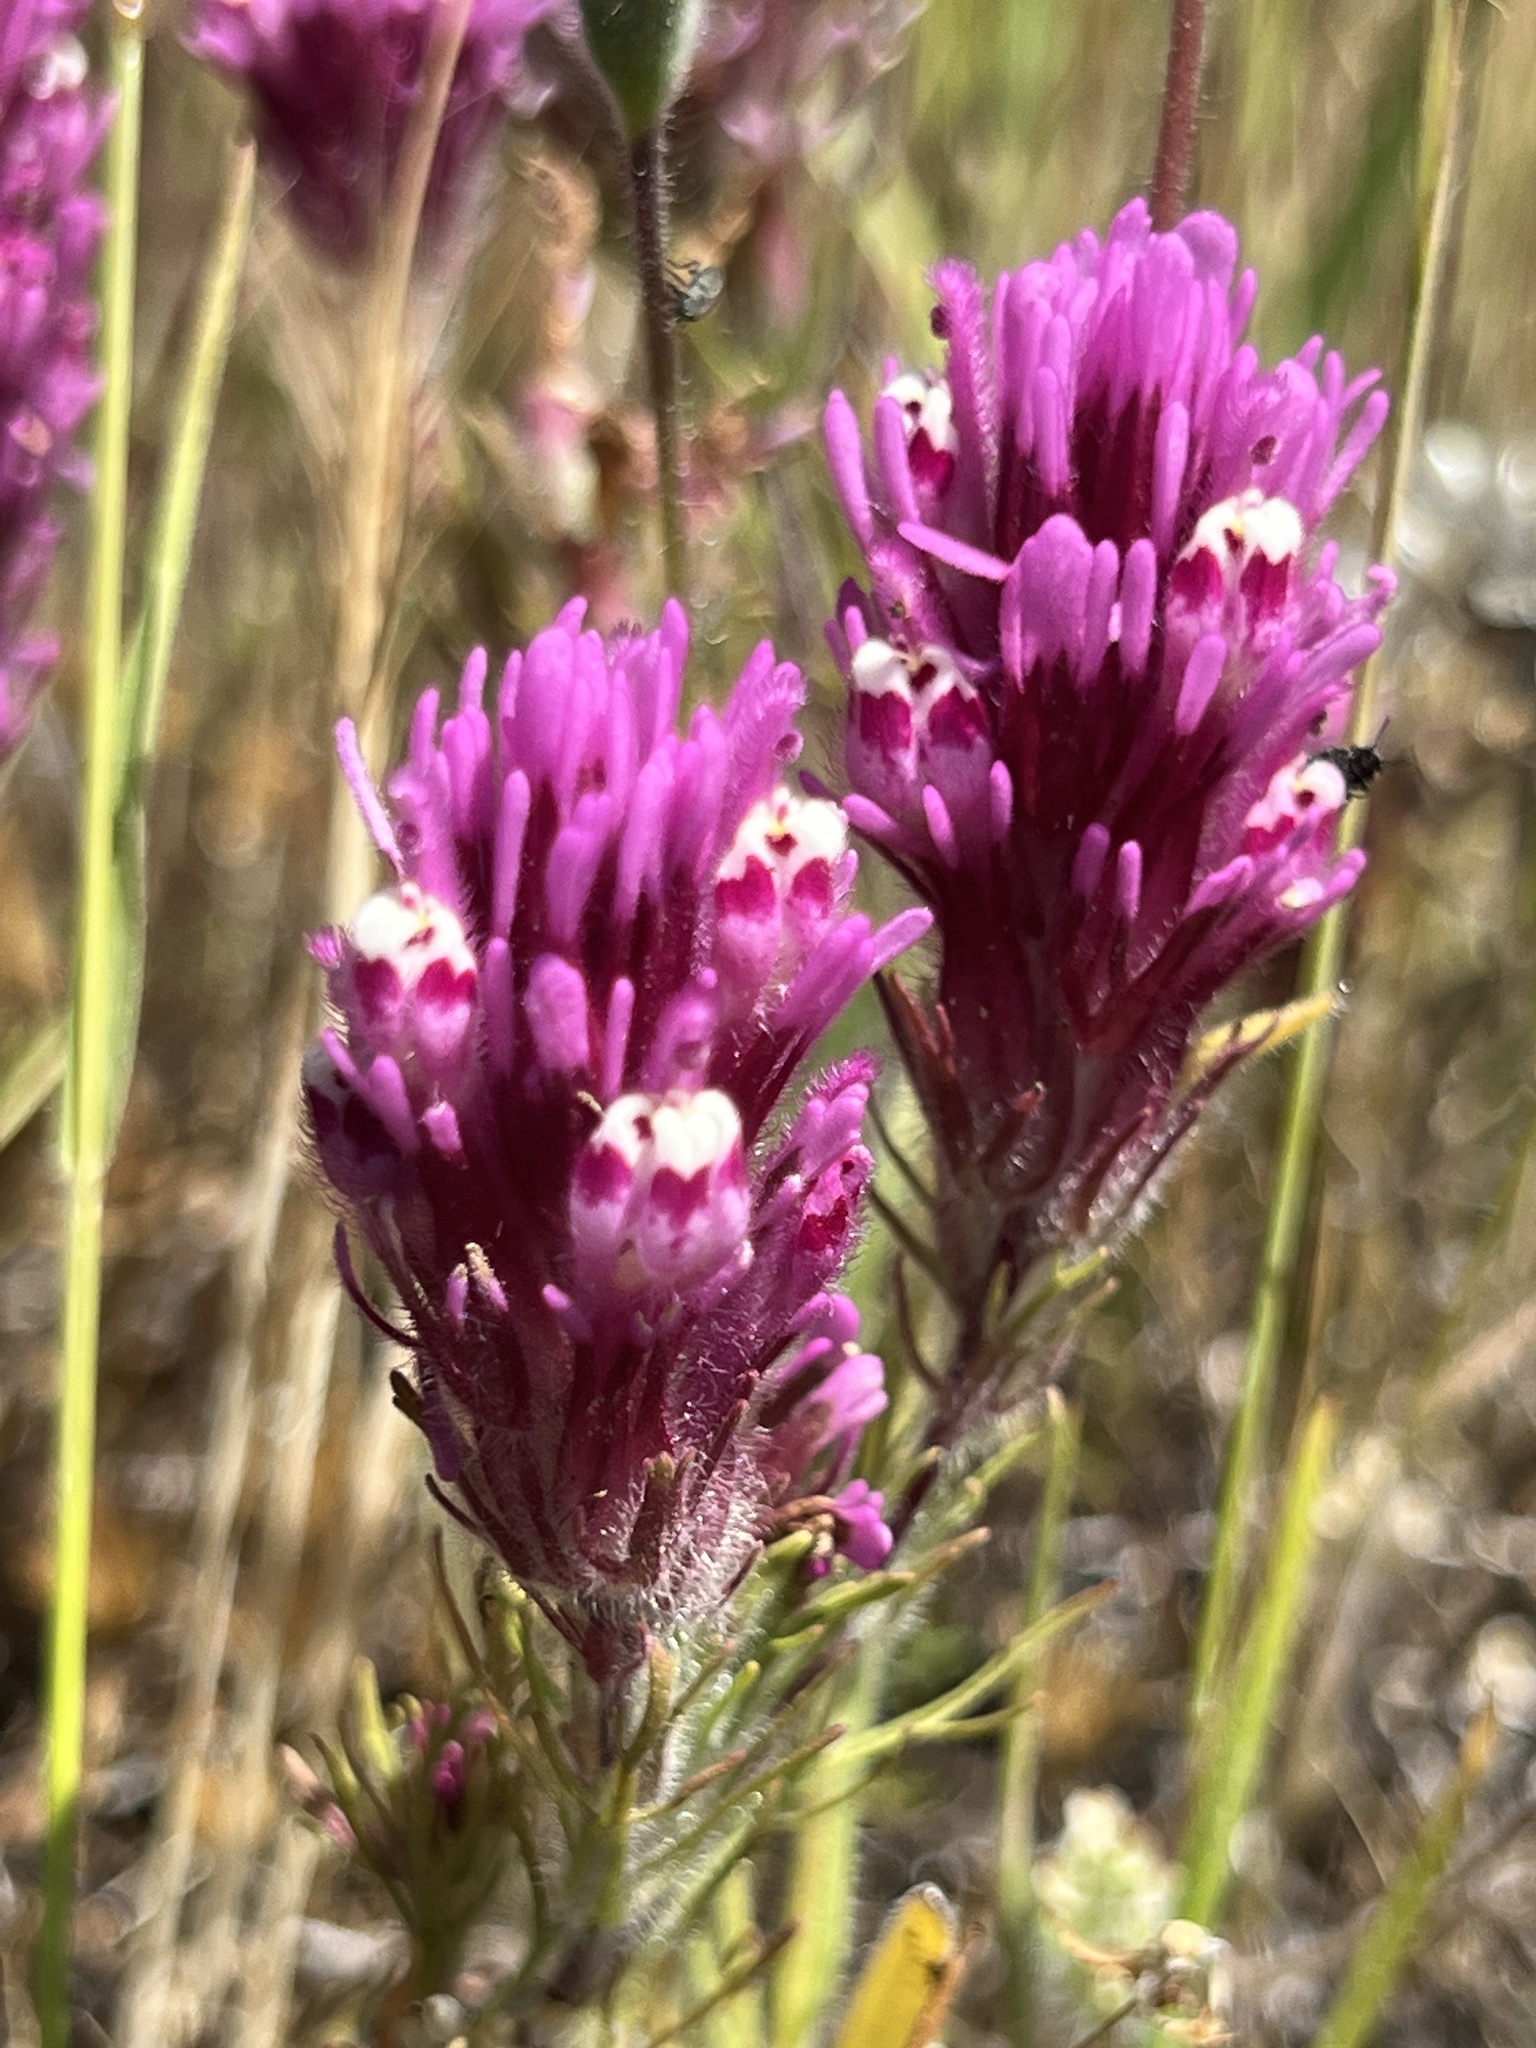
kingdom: Plantae
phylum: Tracheophyta
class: Magnoliopsida
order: Lamiales
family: Orobanchaceae
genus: Castilleja
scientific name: Castilleja exserta
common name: Purple owl-clover
